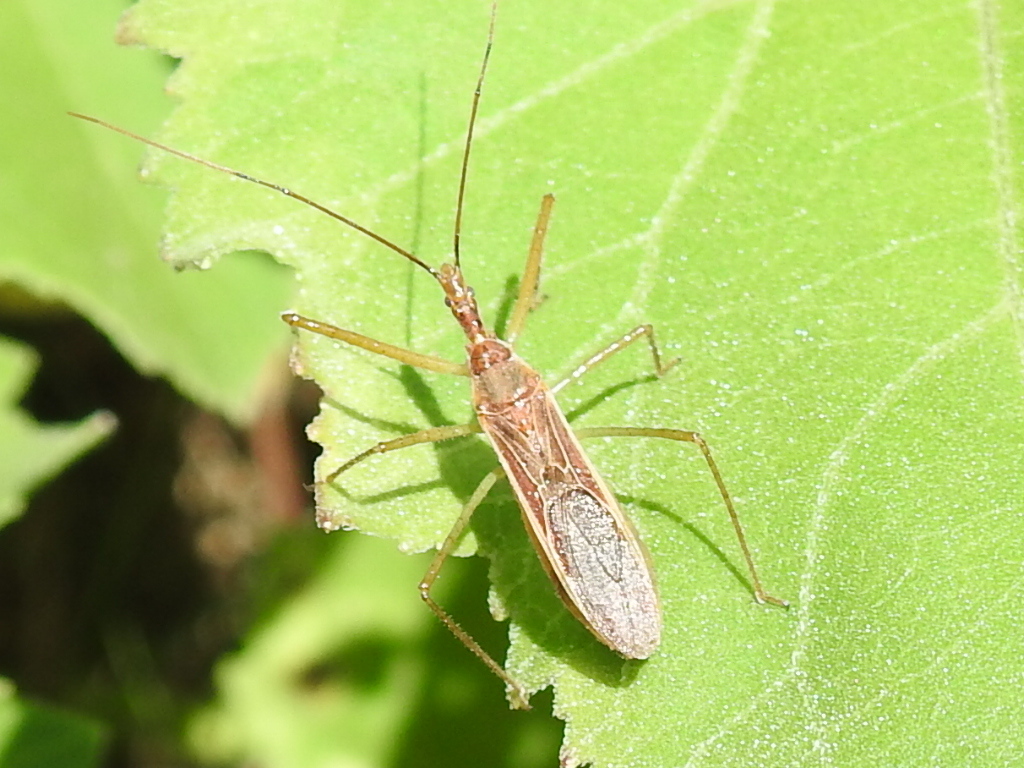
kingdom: Animalia
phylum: Arthropoda
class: Insecta
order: Hemiptera
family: Reduviidae
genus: Zelus
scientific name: Zelus cervicalis
